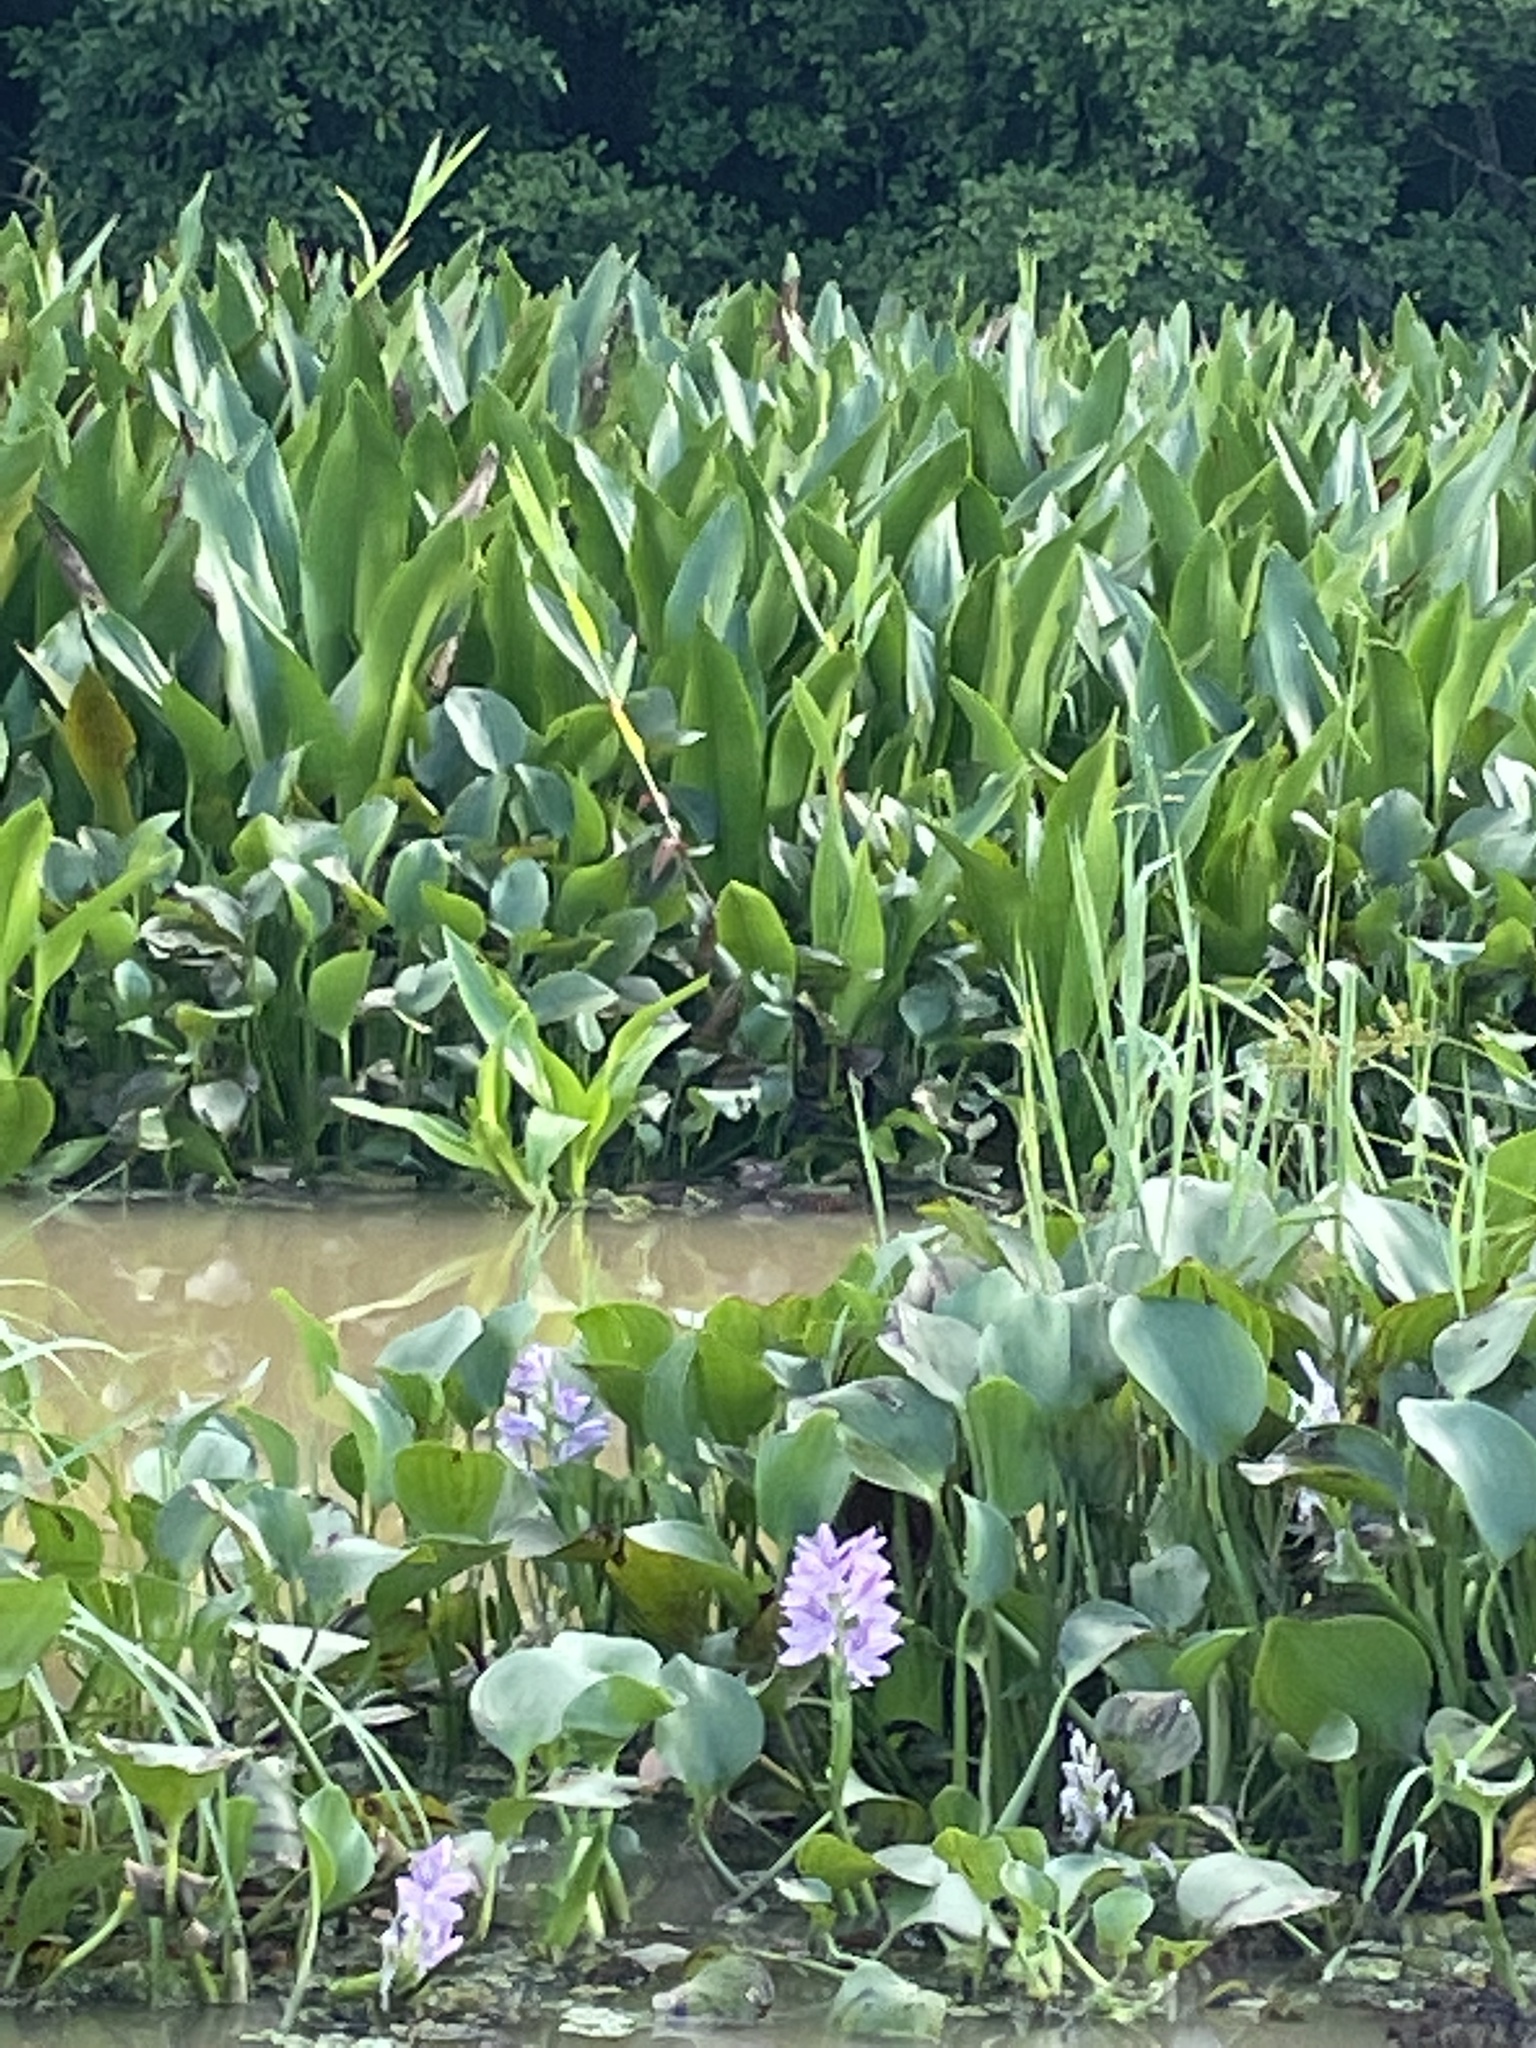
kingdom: Plantae
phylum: Tracheophyta
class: Liliopsida
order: Commelinales
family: Pontederiaceae
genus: Pontederia
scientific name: Pontederia crassipes
